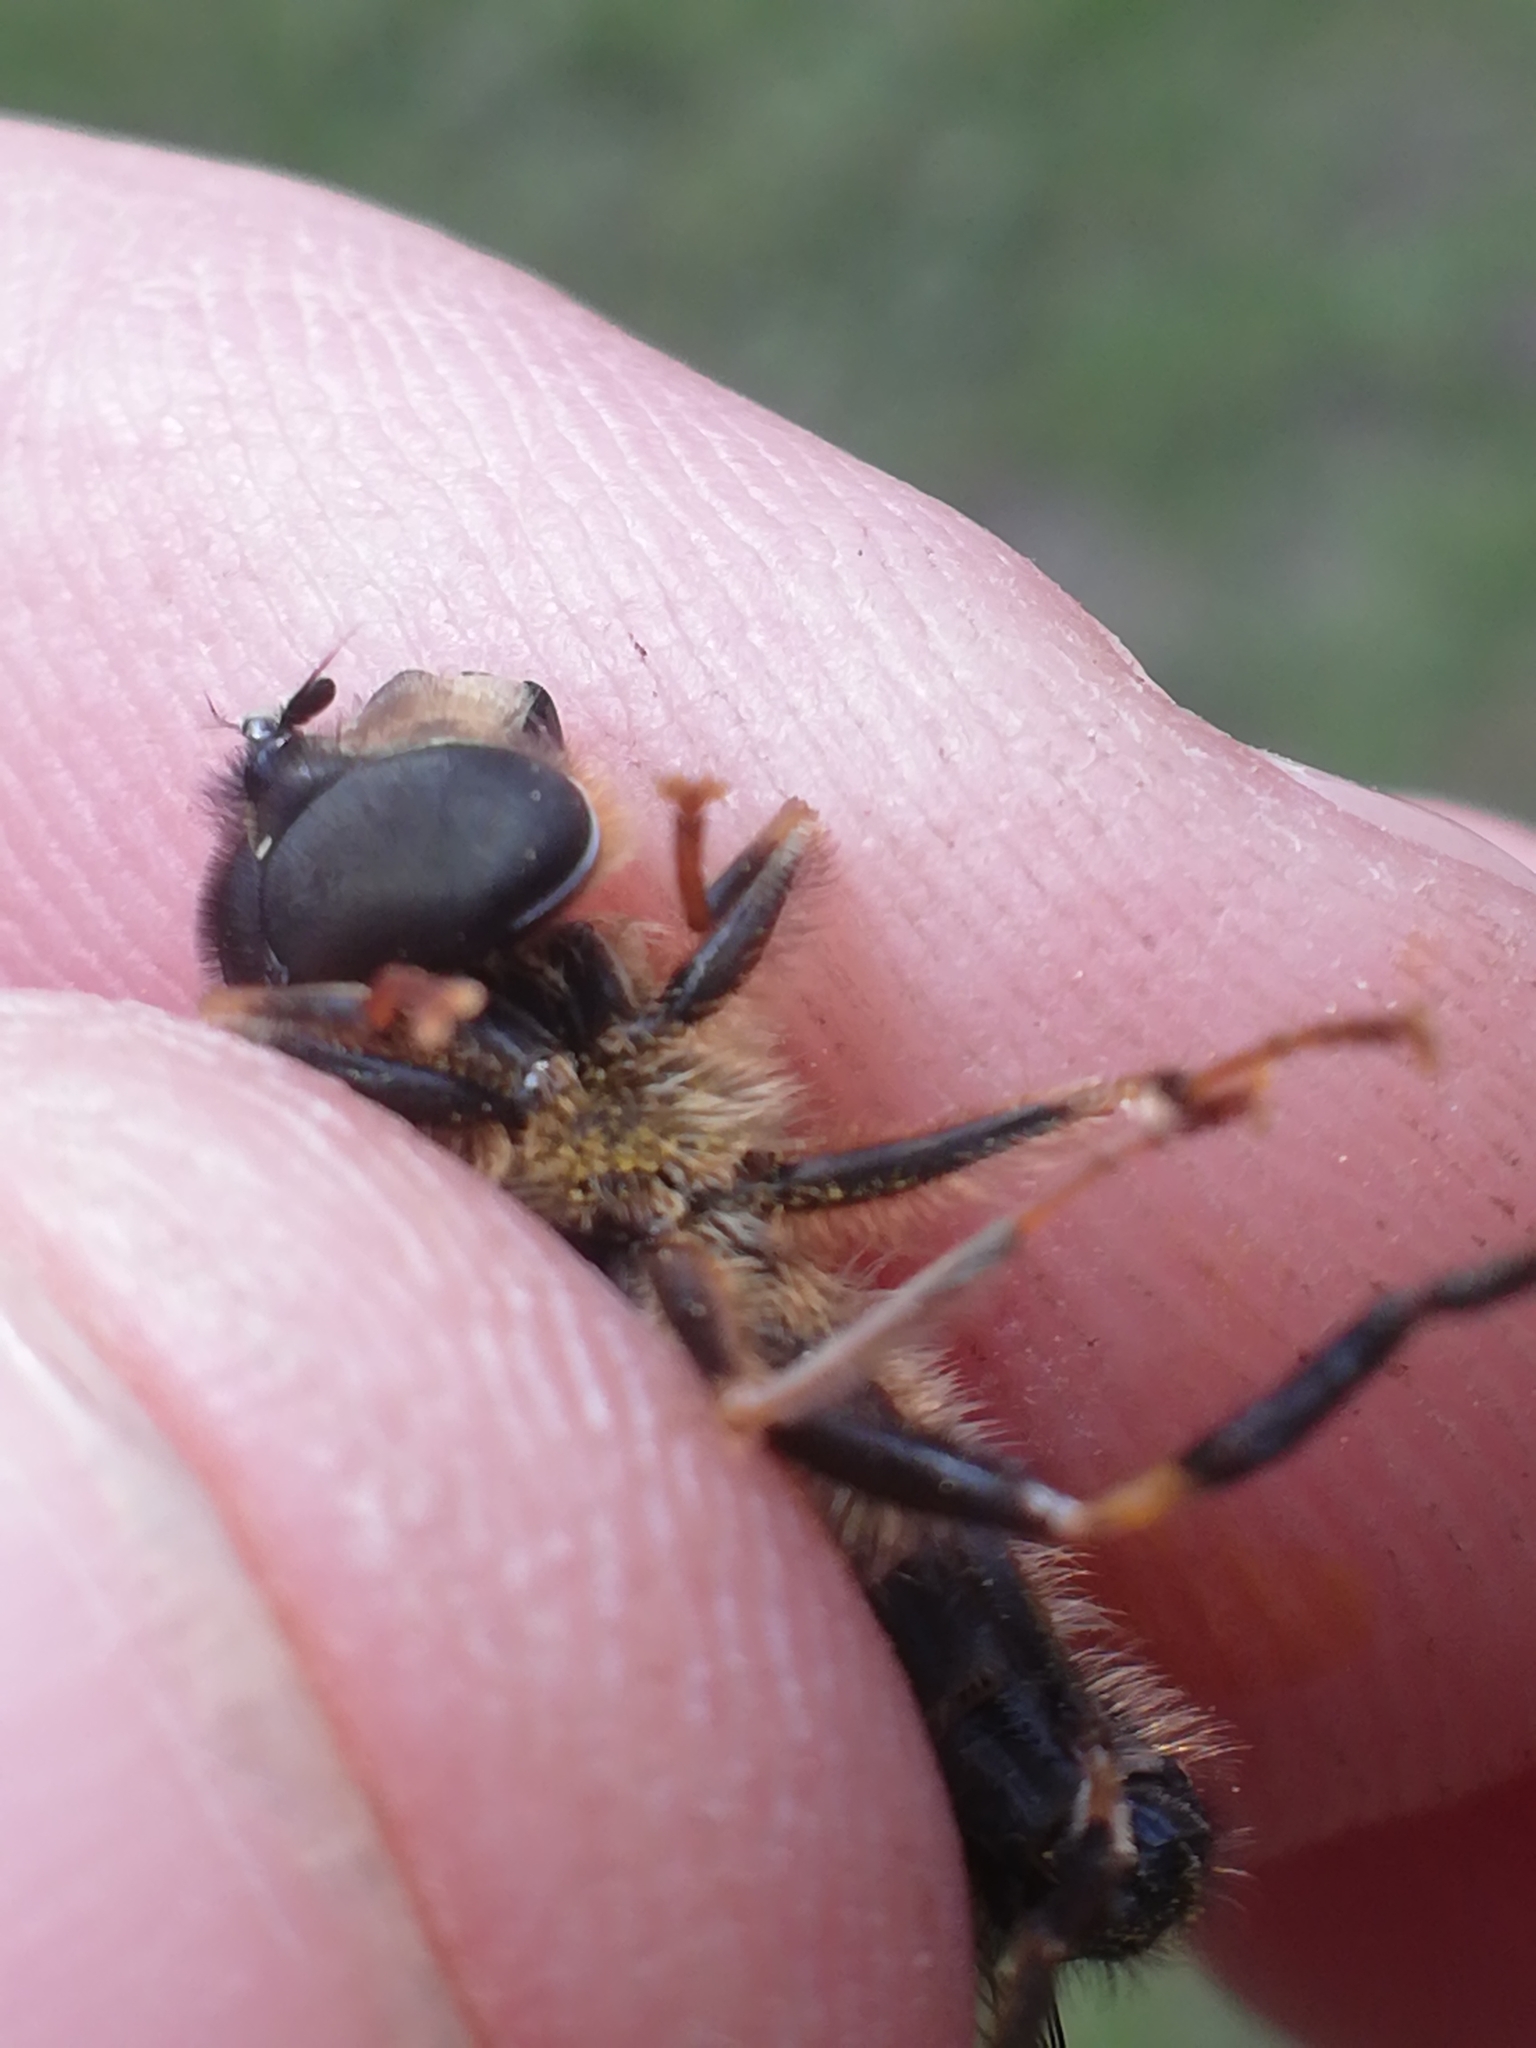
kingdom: Animalia
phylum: Arthropoda
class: Insecta
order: Diptera
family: Syrphidae
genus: Eristalis
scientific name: Eristalis pertinax
